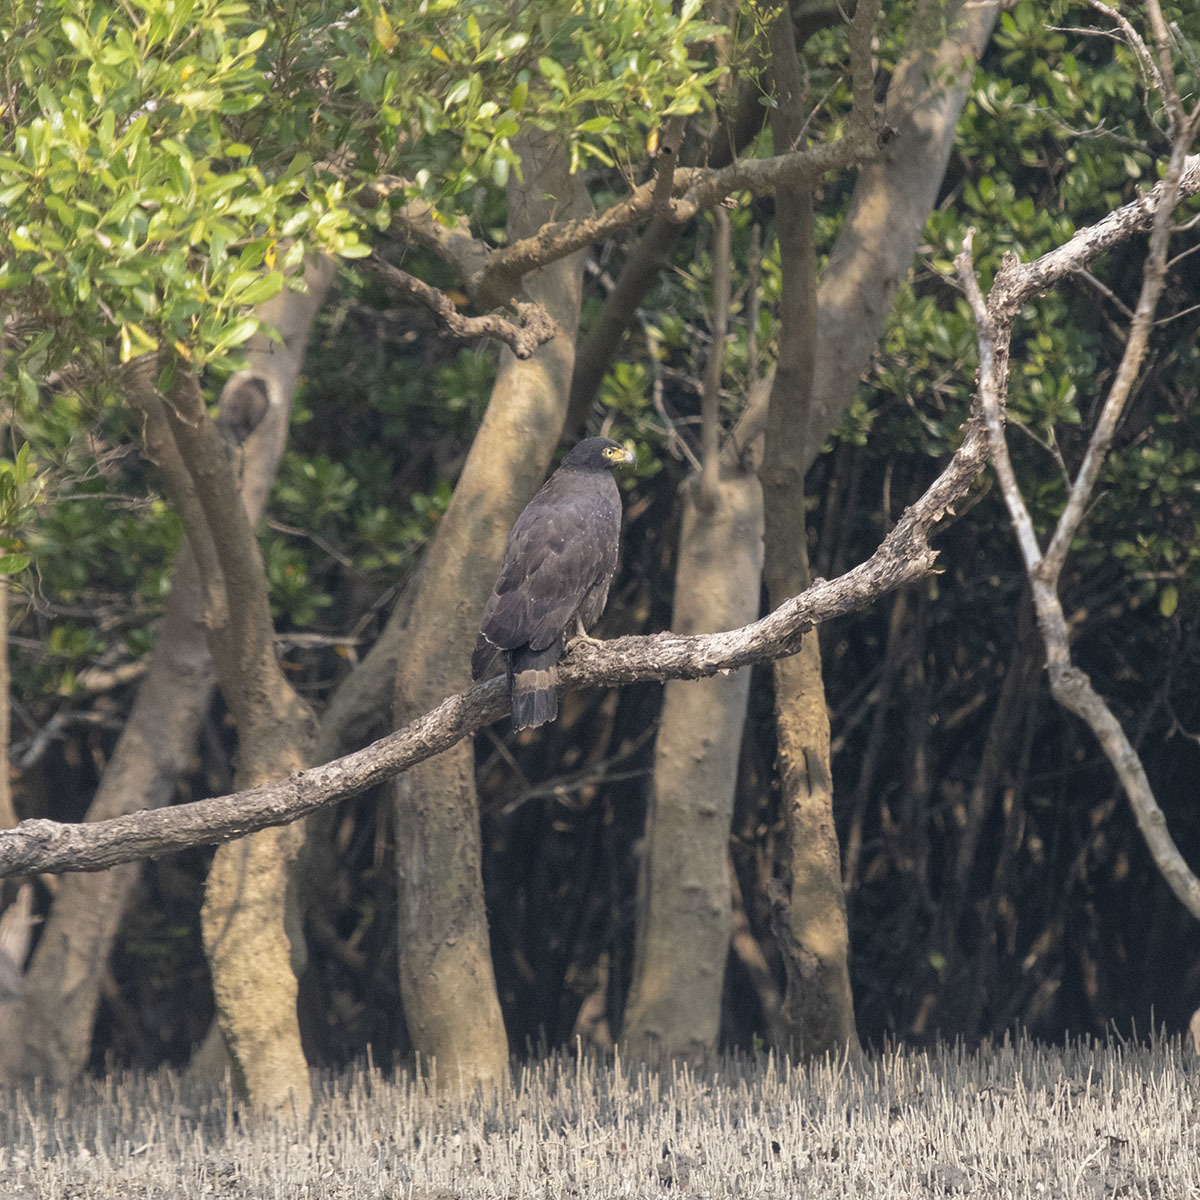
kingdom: Animalia
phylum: Chordata
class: Aves
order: Accipitriformes
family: Accipitridae
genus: Spilornis
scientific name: Spilornis cheela
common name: Crested serpent eagle
